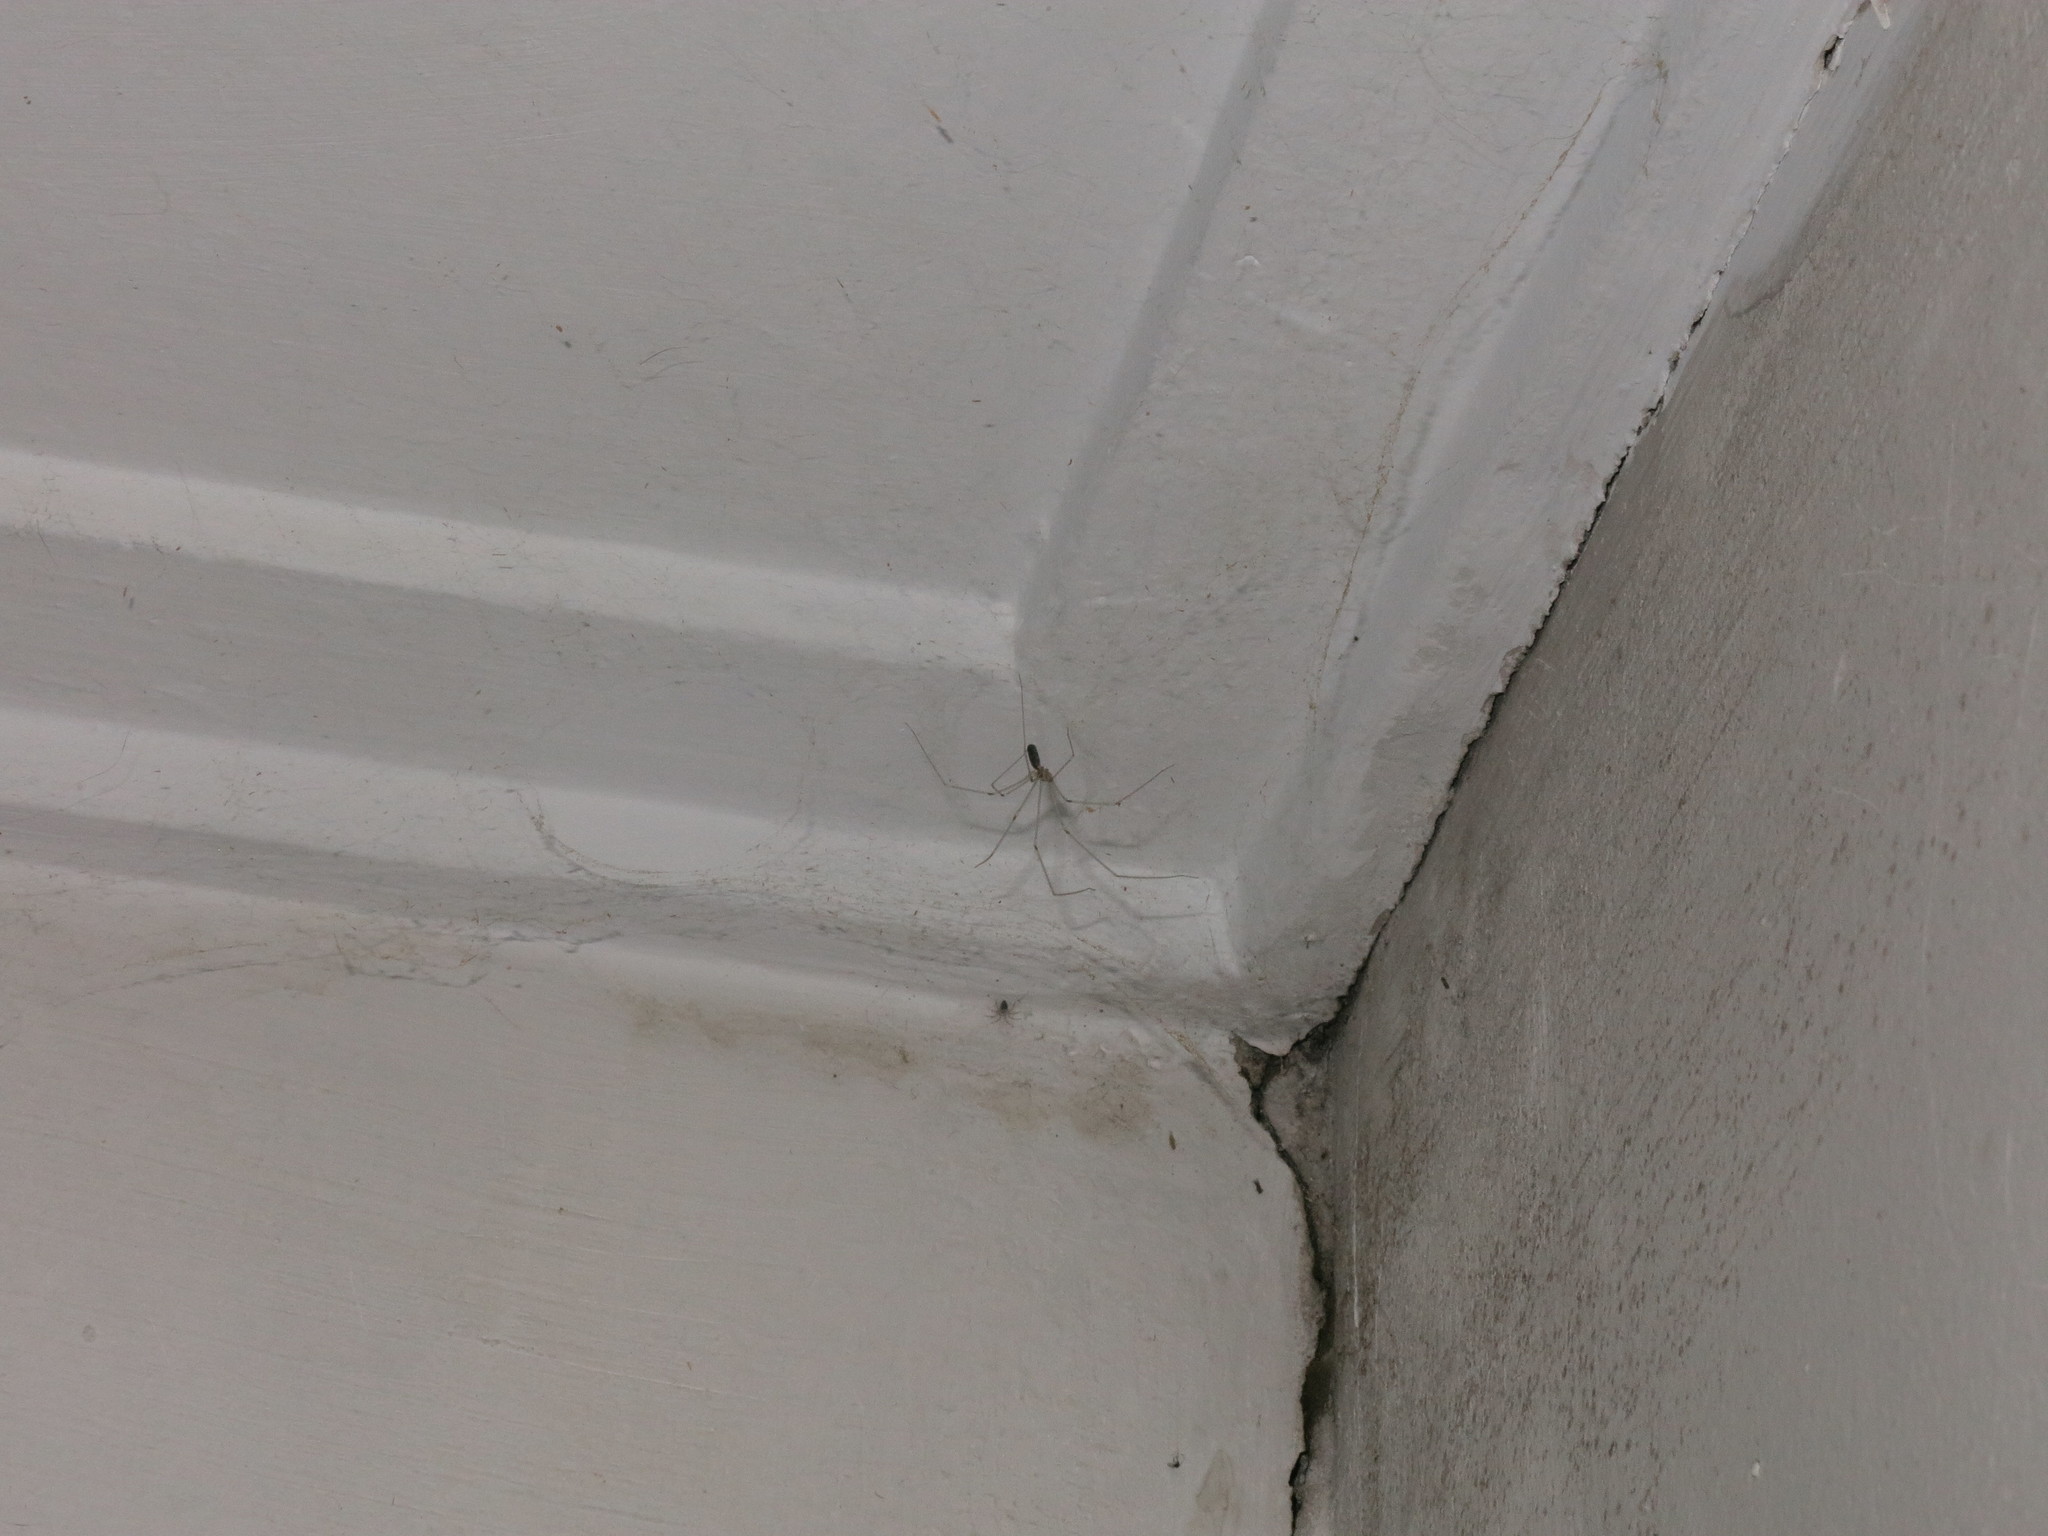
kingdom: Animalia
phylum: Arthropoda
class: Arachnida
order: Araneae
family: Pholcidae
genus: Pholcus
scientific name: Pholcus phalangioides
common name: Longbodied cellar spider
